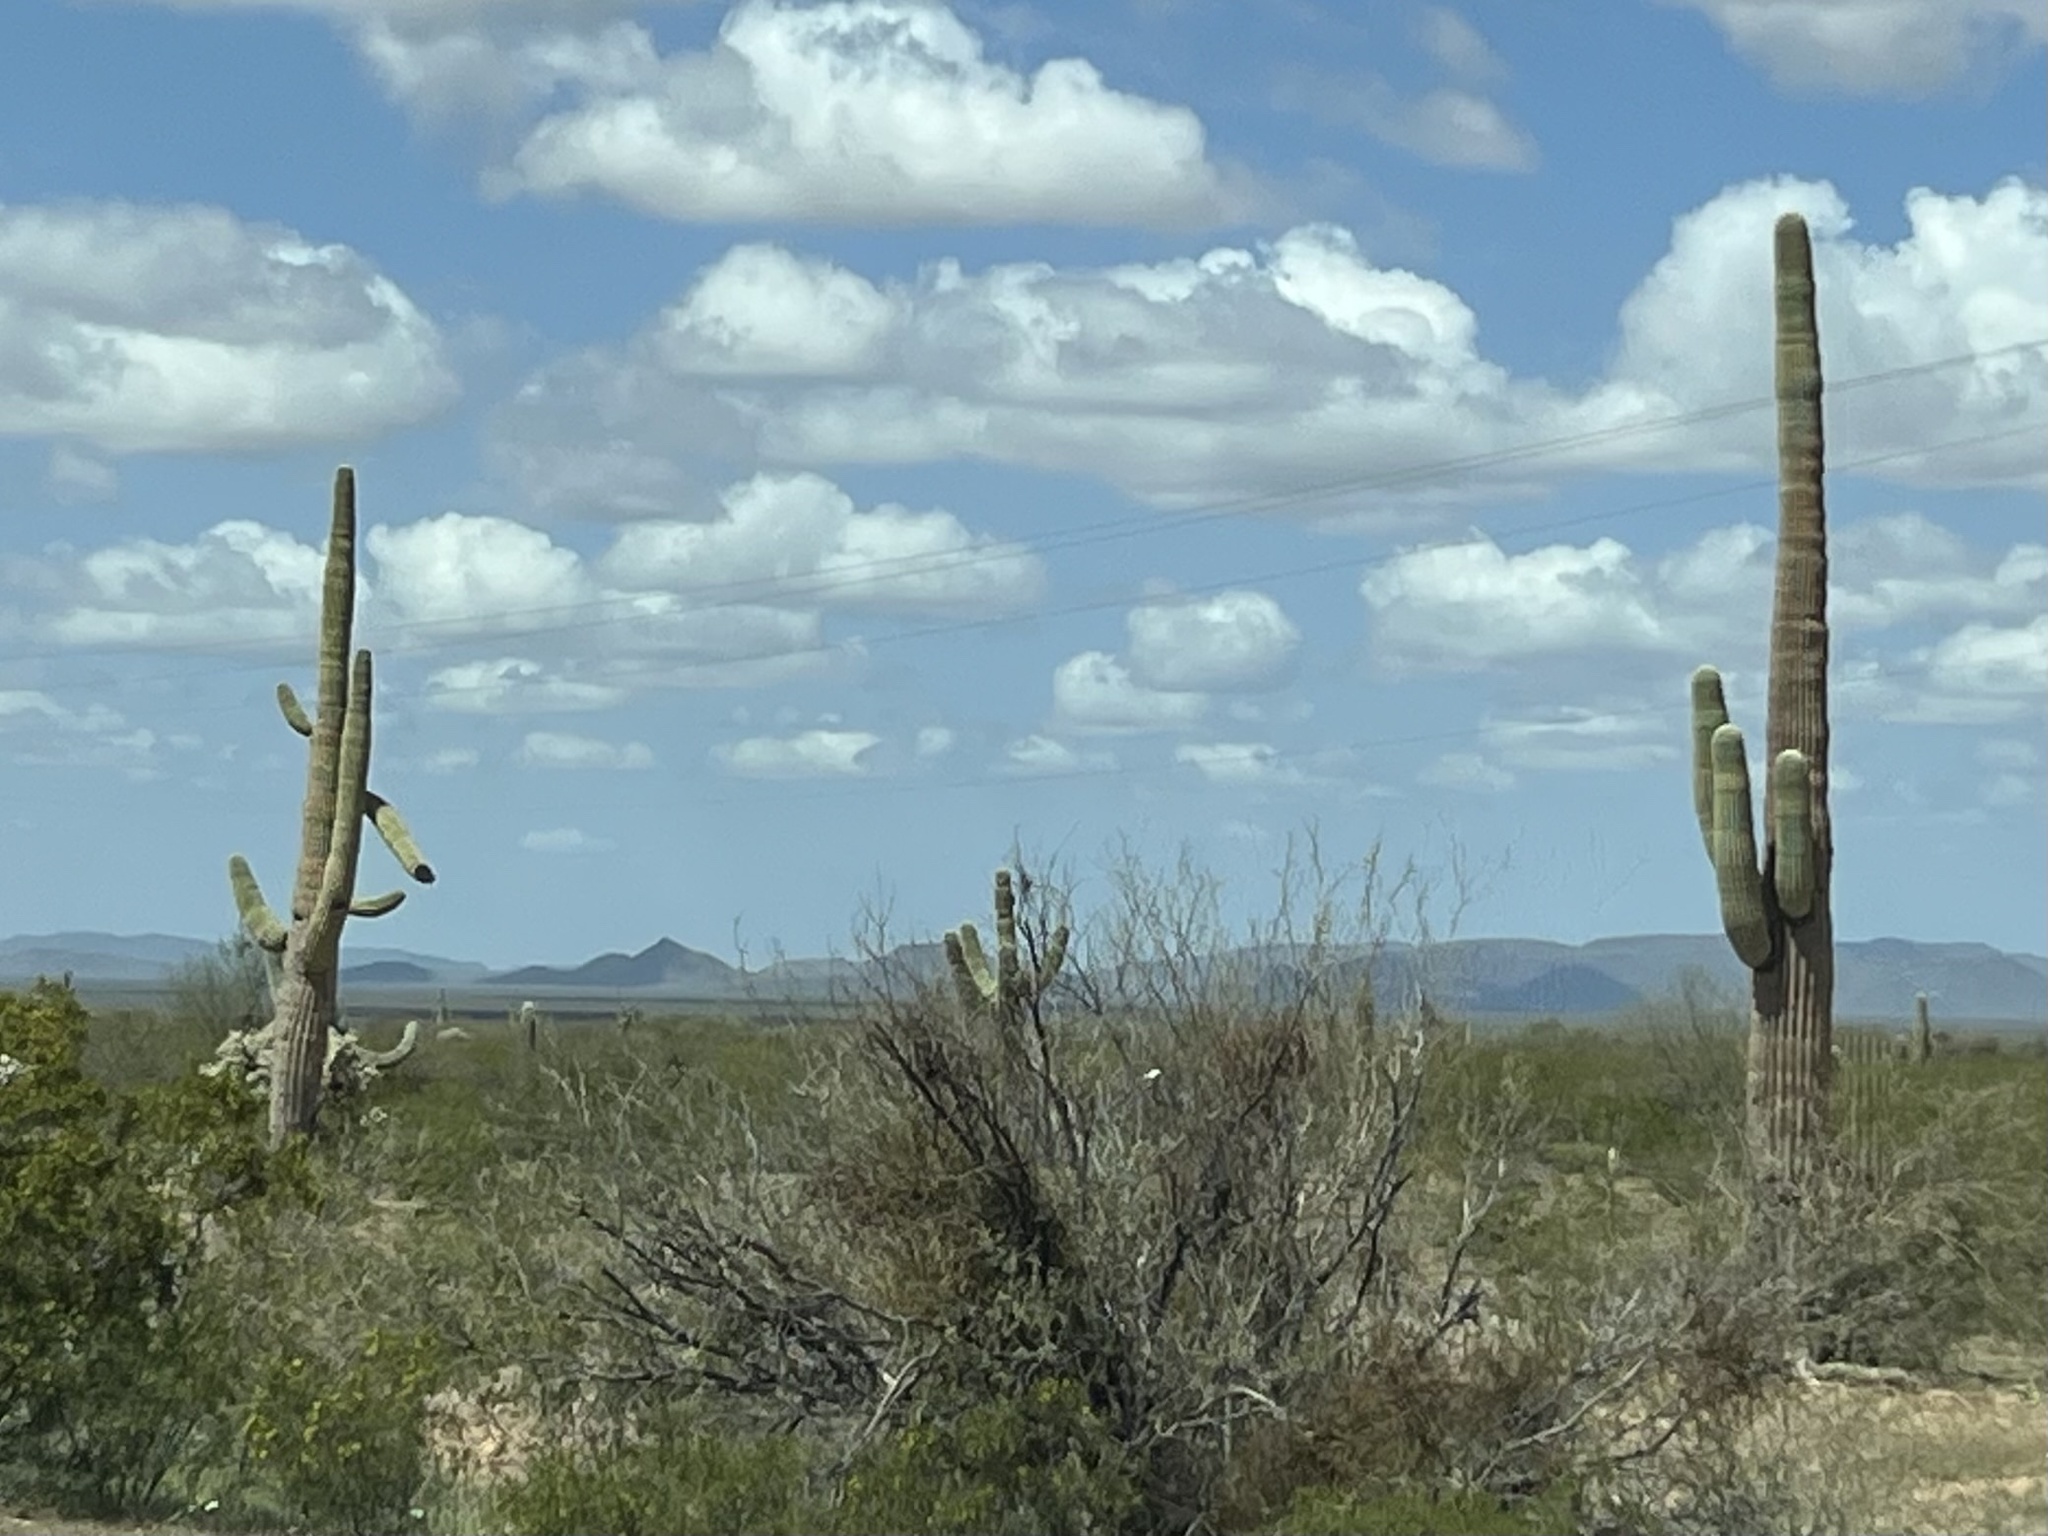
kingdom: Plantae
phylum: Tracheophyta
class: Magnoliopsida
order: Caryophyllales
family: Cactaceae
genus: Carnegiea
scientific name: Carnegiea gigantea
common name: Saguaro
